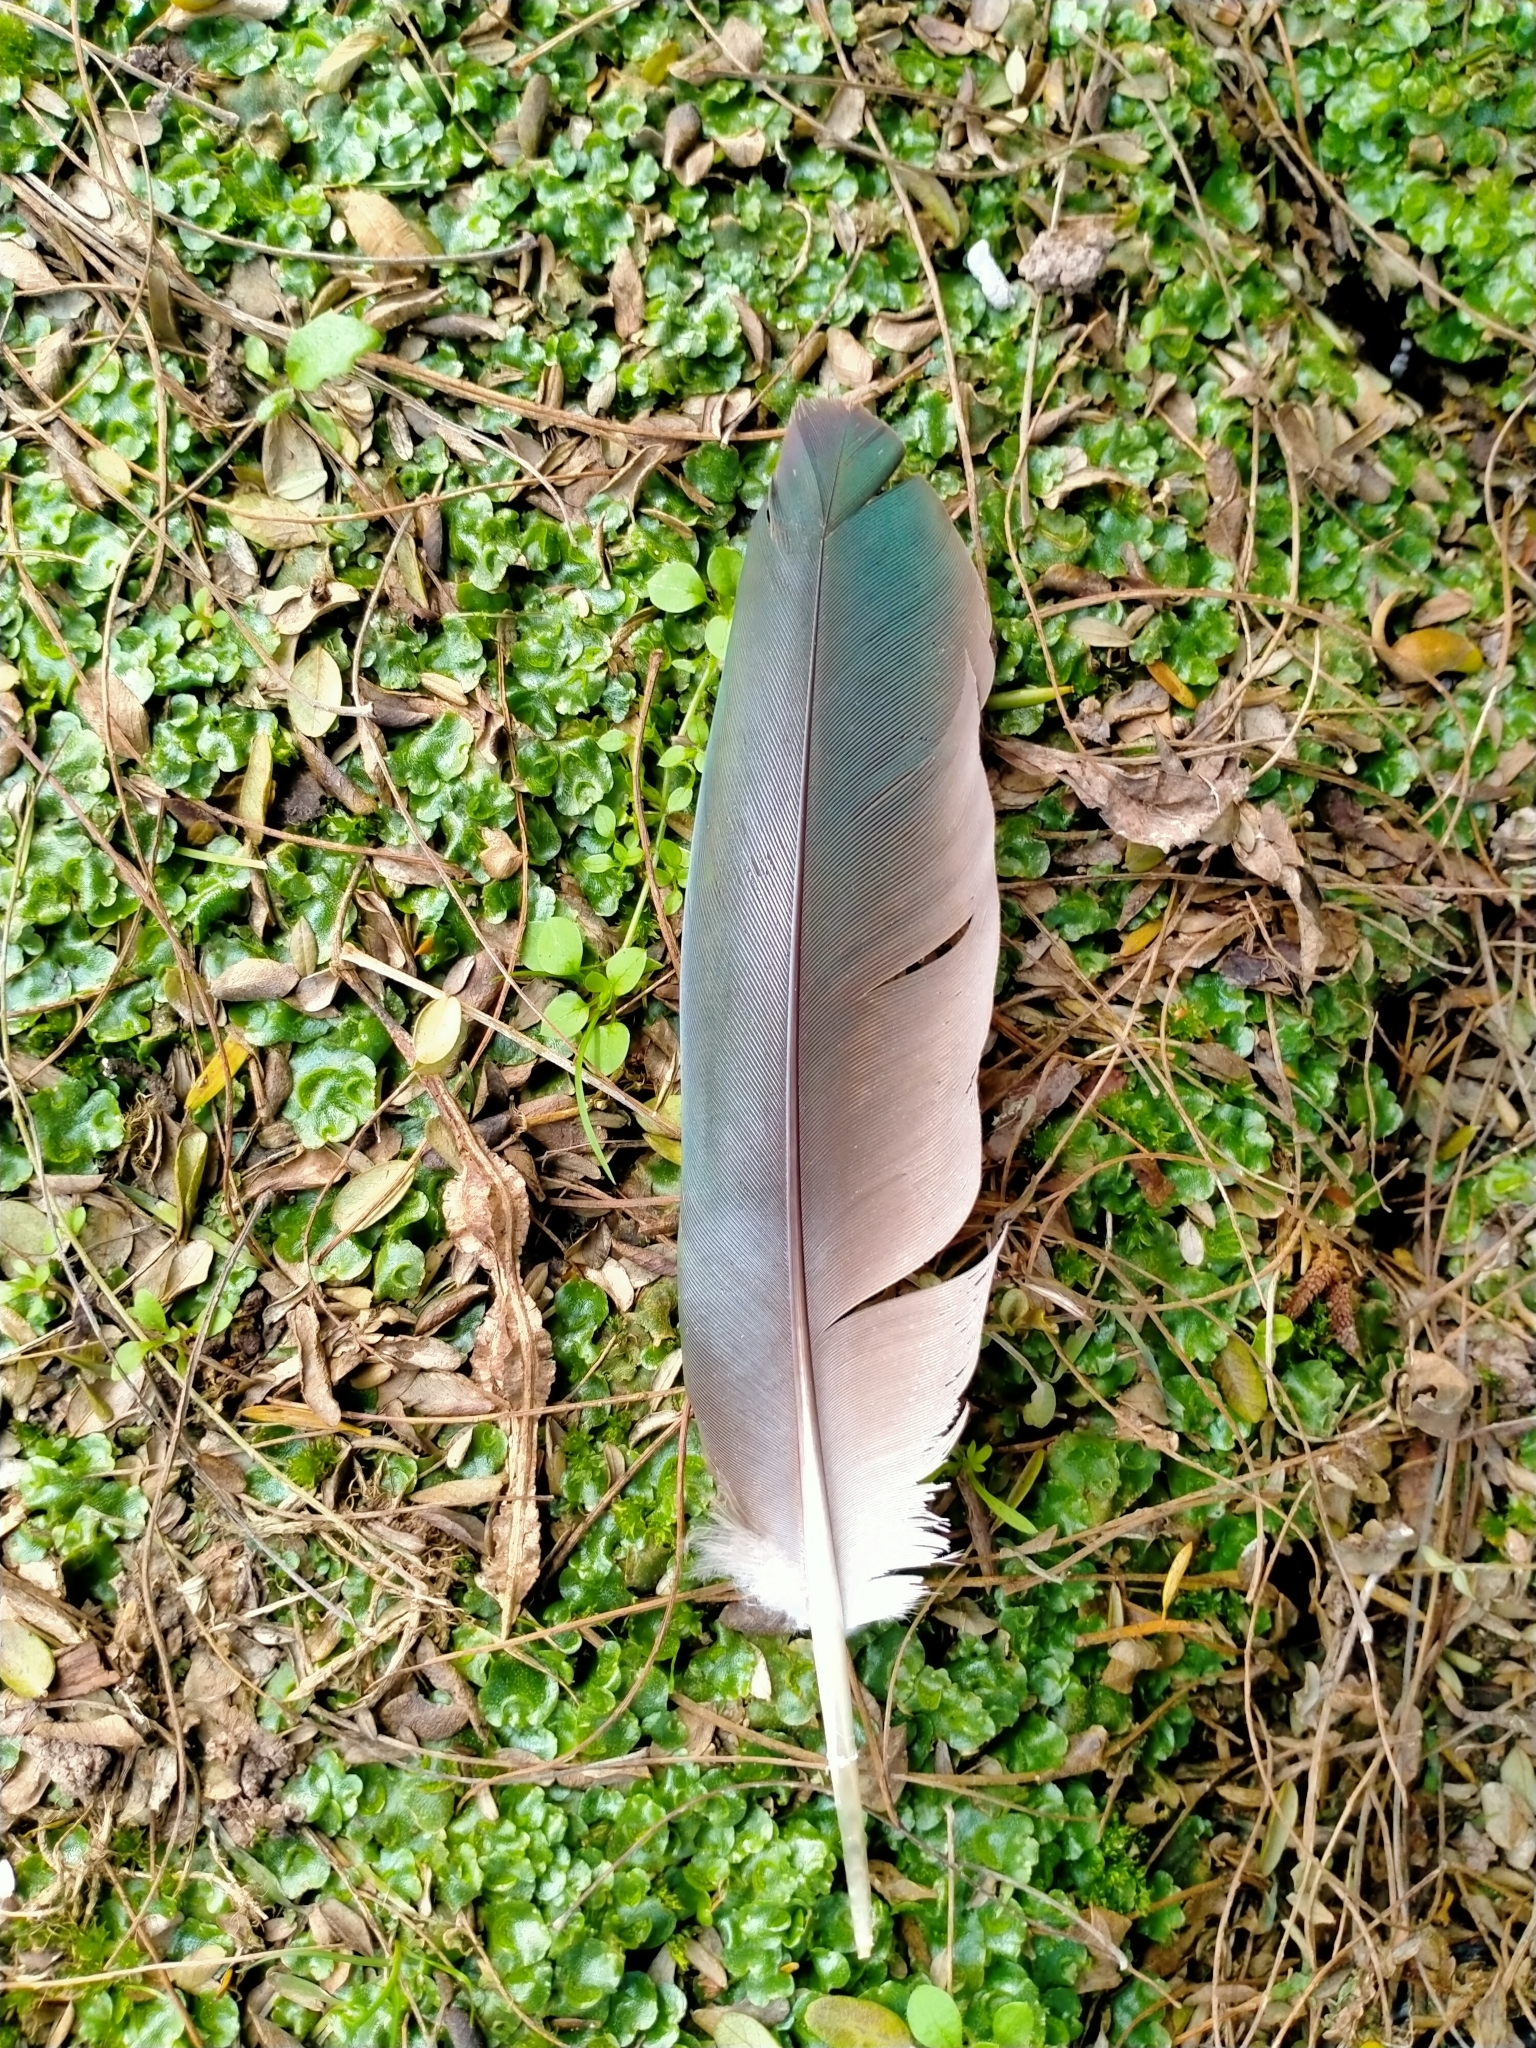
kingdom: Animalia
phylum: Chordata
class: Aves
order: Columbiformes
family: Columbidae
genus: Hemiphaga
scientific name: Hemiphaga novaeseelandiae
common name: New zealand pigeon
